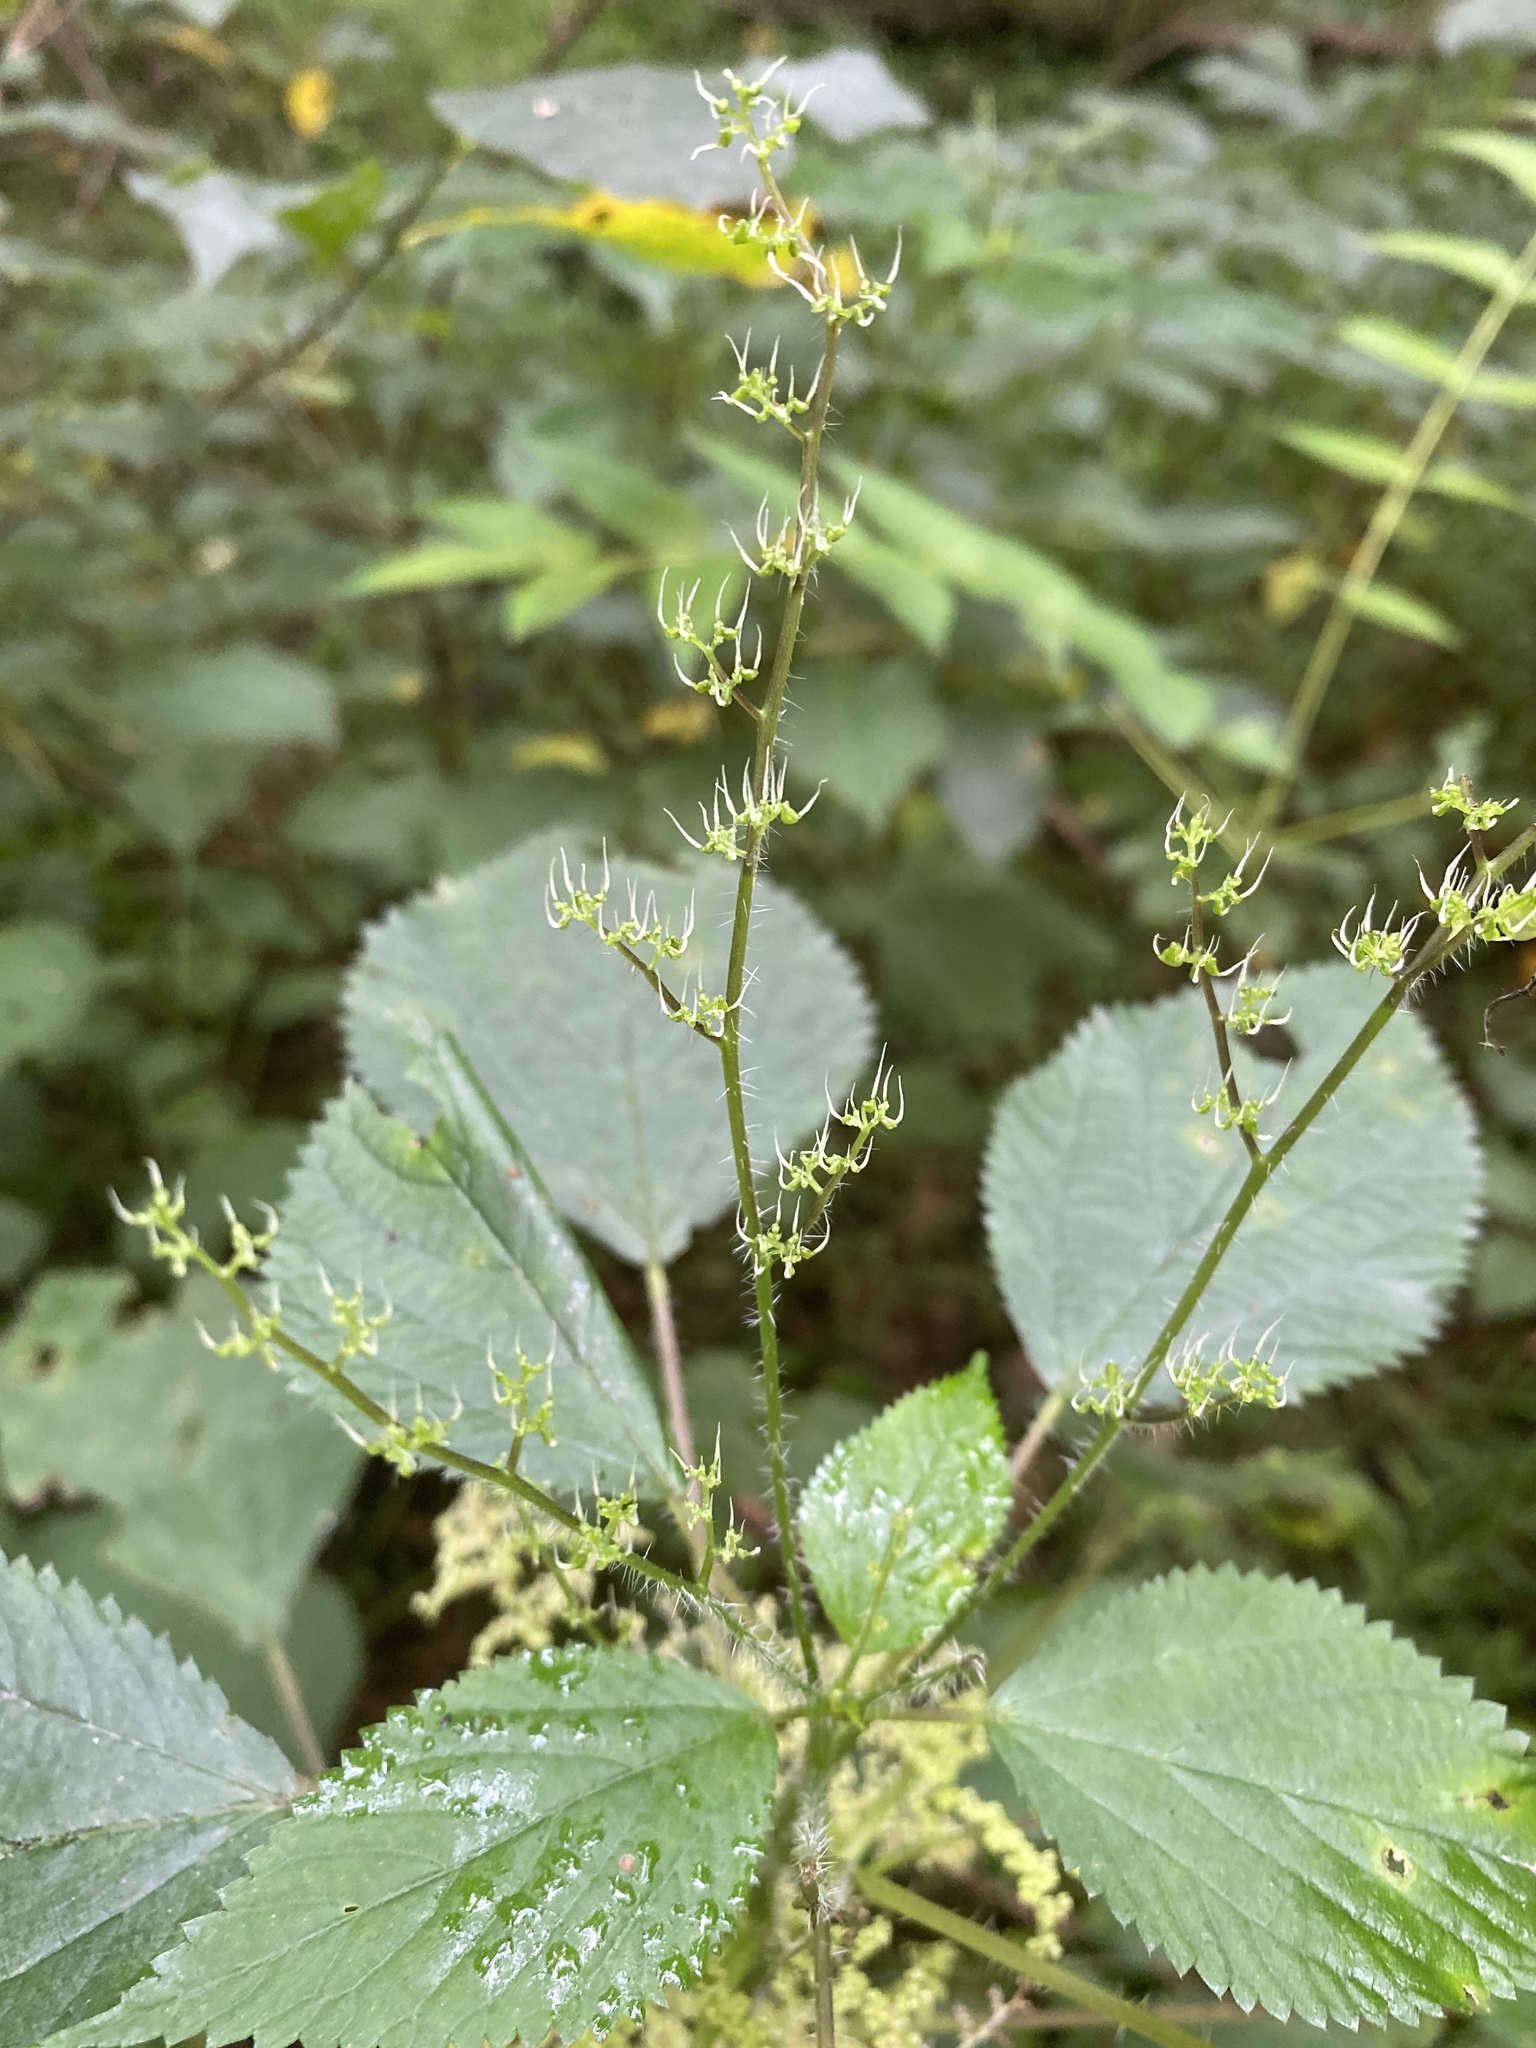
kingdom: Plantae
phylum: Tracheophyta
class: Magnoliopsida
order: Rosales
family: Urticaceae
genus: Laportea
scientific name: Laportea canadensis
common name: Canada nettle
